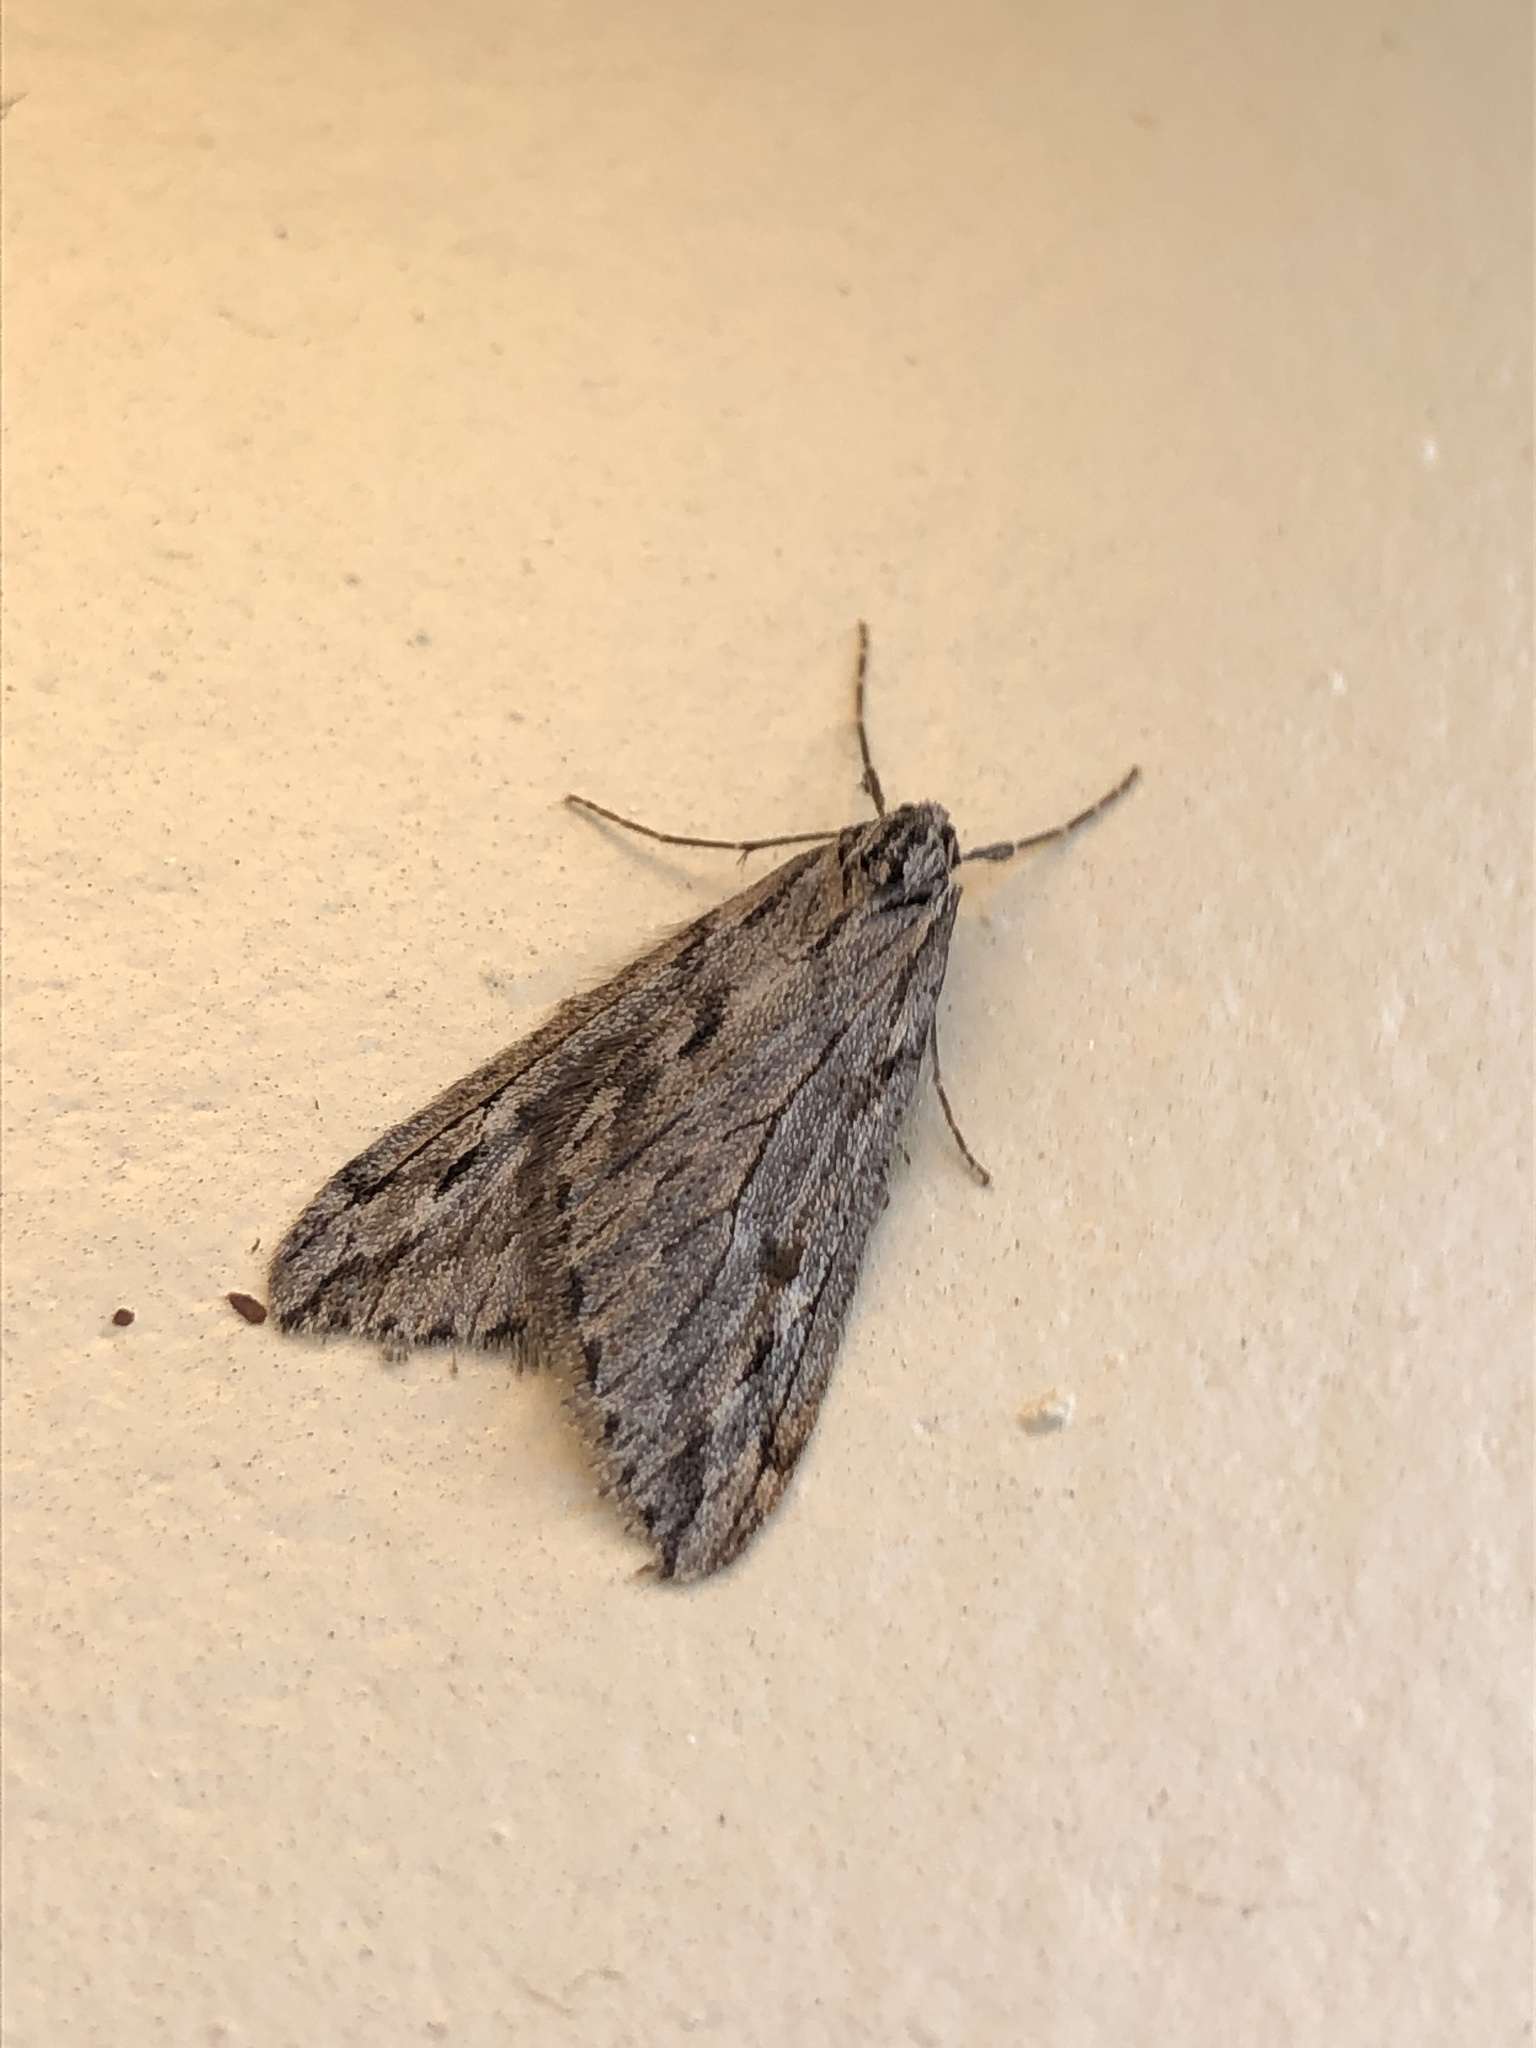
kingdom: Animalia
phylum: Arthropoda
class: Insecta
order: Lepidoptera
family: Geometridae
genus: Paleacrita
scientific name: Paleacrita longiciliata
